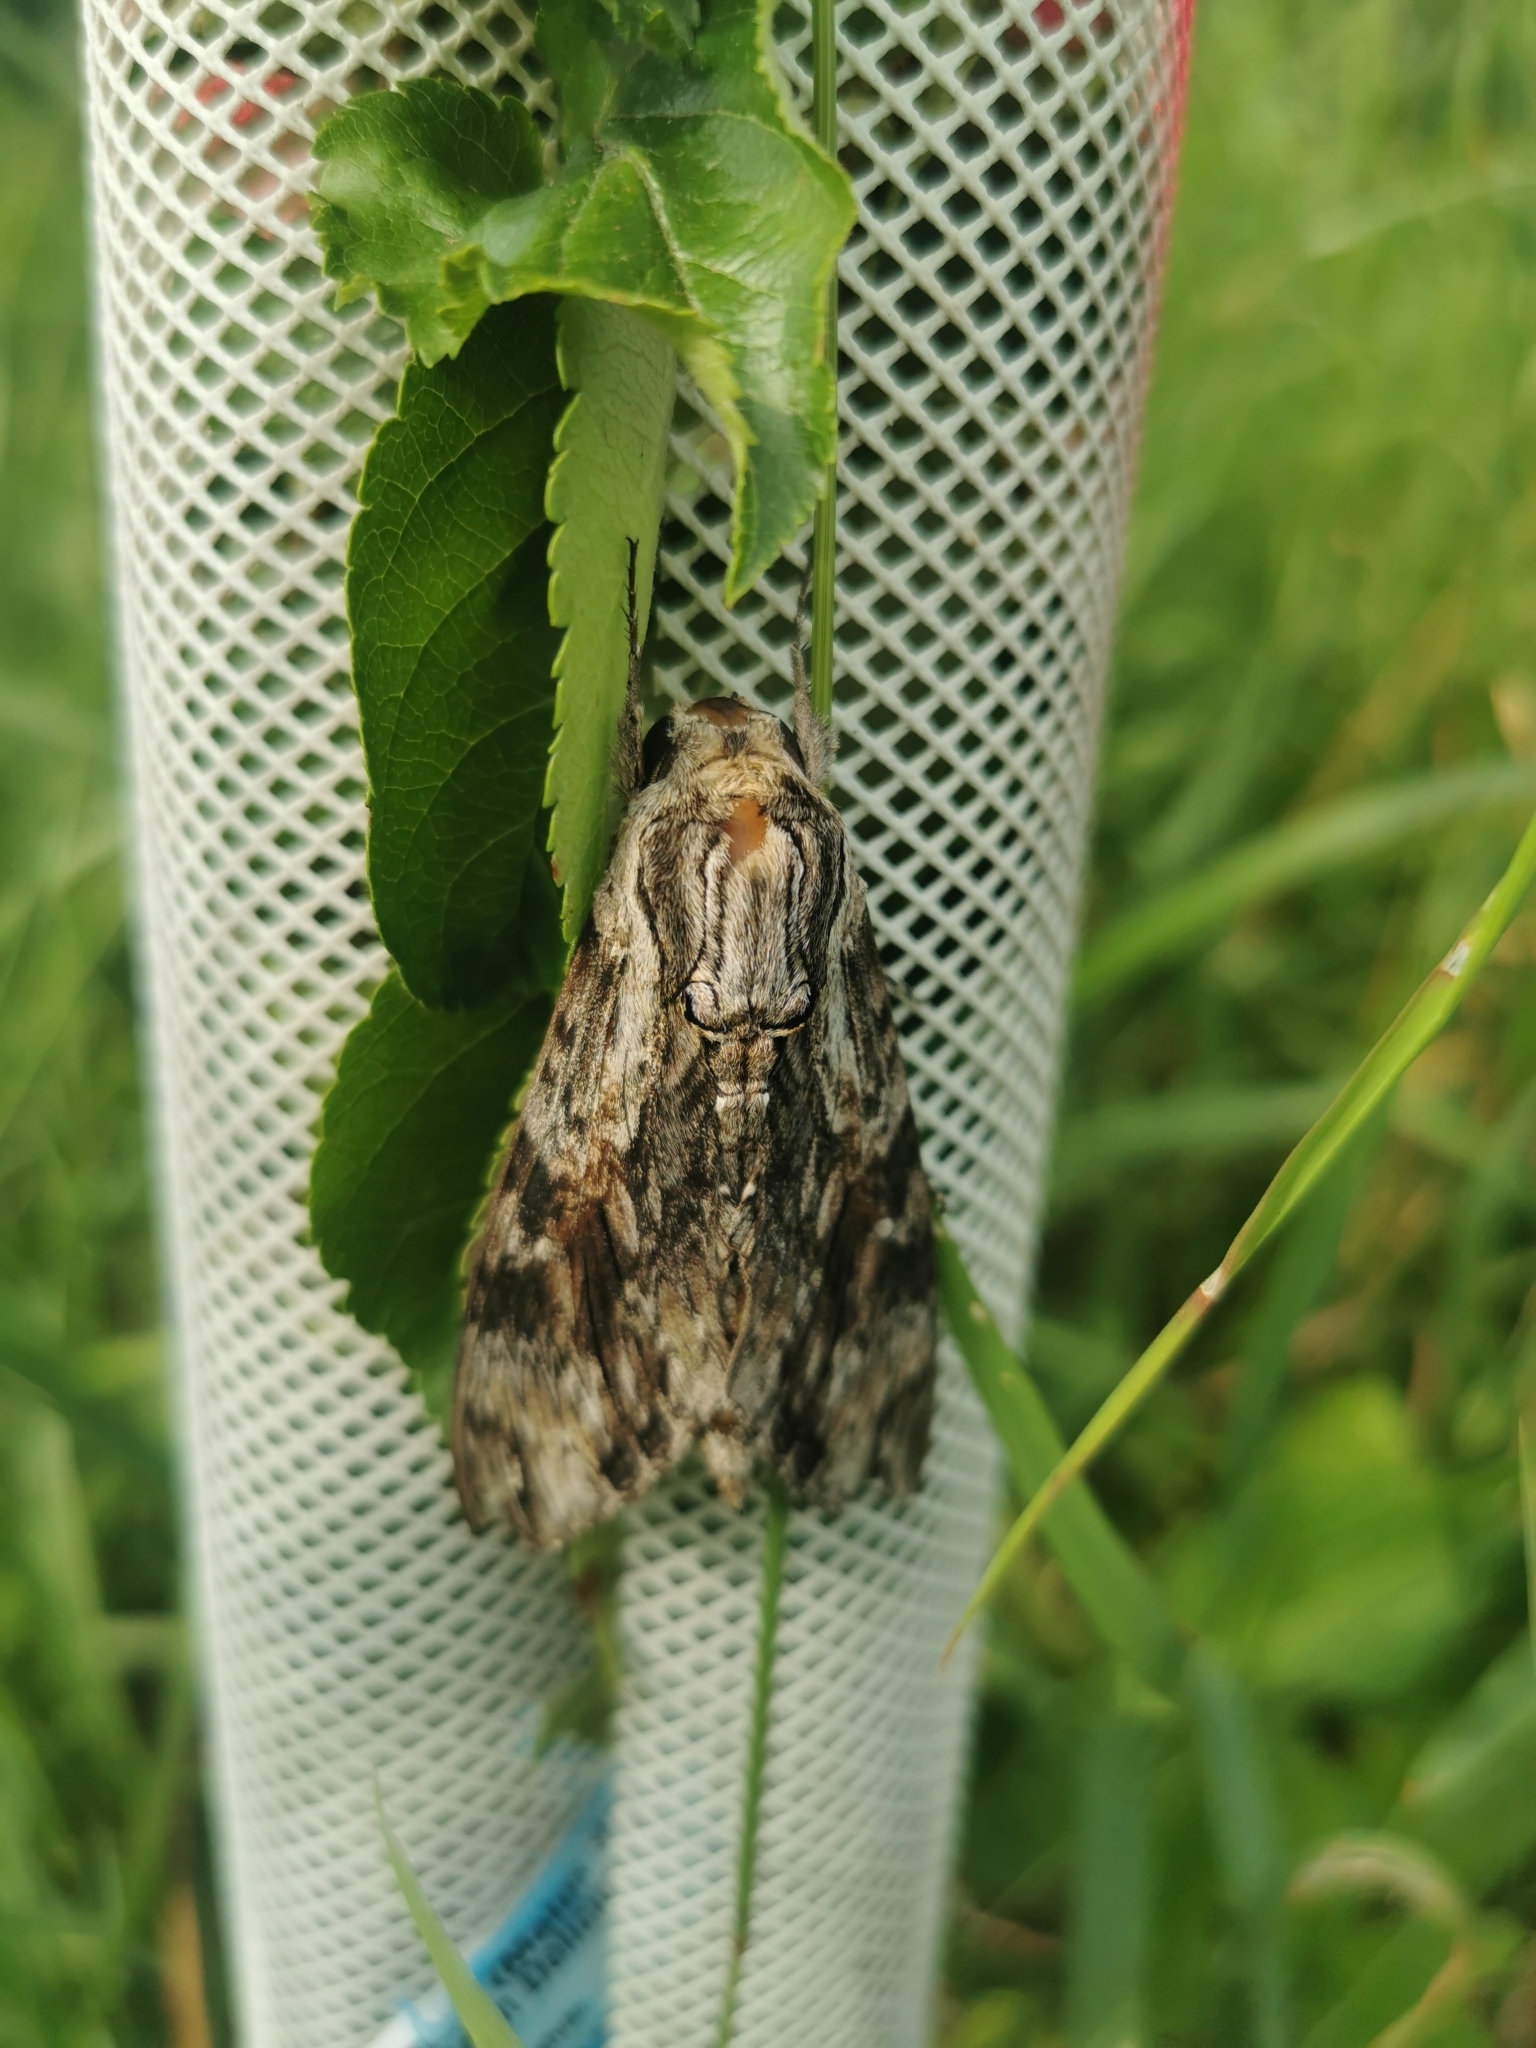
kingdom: Animalia
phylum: Arthropoda
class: Insecta
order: Lepidoptera
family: Sphingidae
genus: Agrius
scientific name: Agrius convolvuli
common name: Convolvulus hawkmoth
